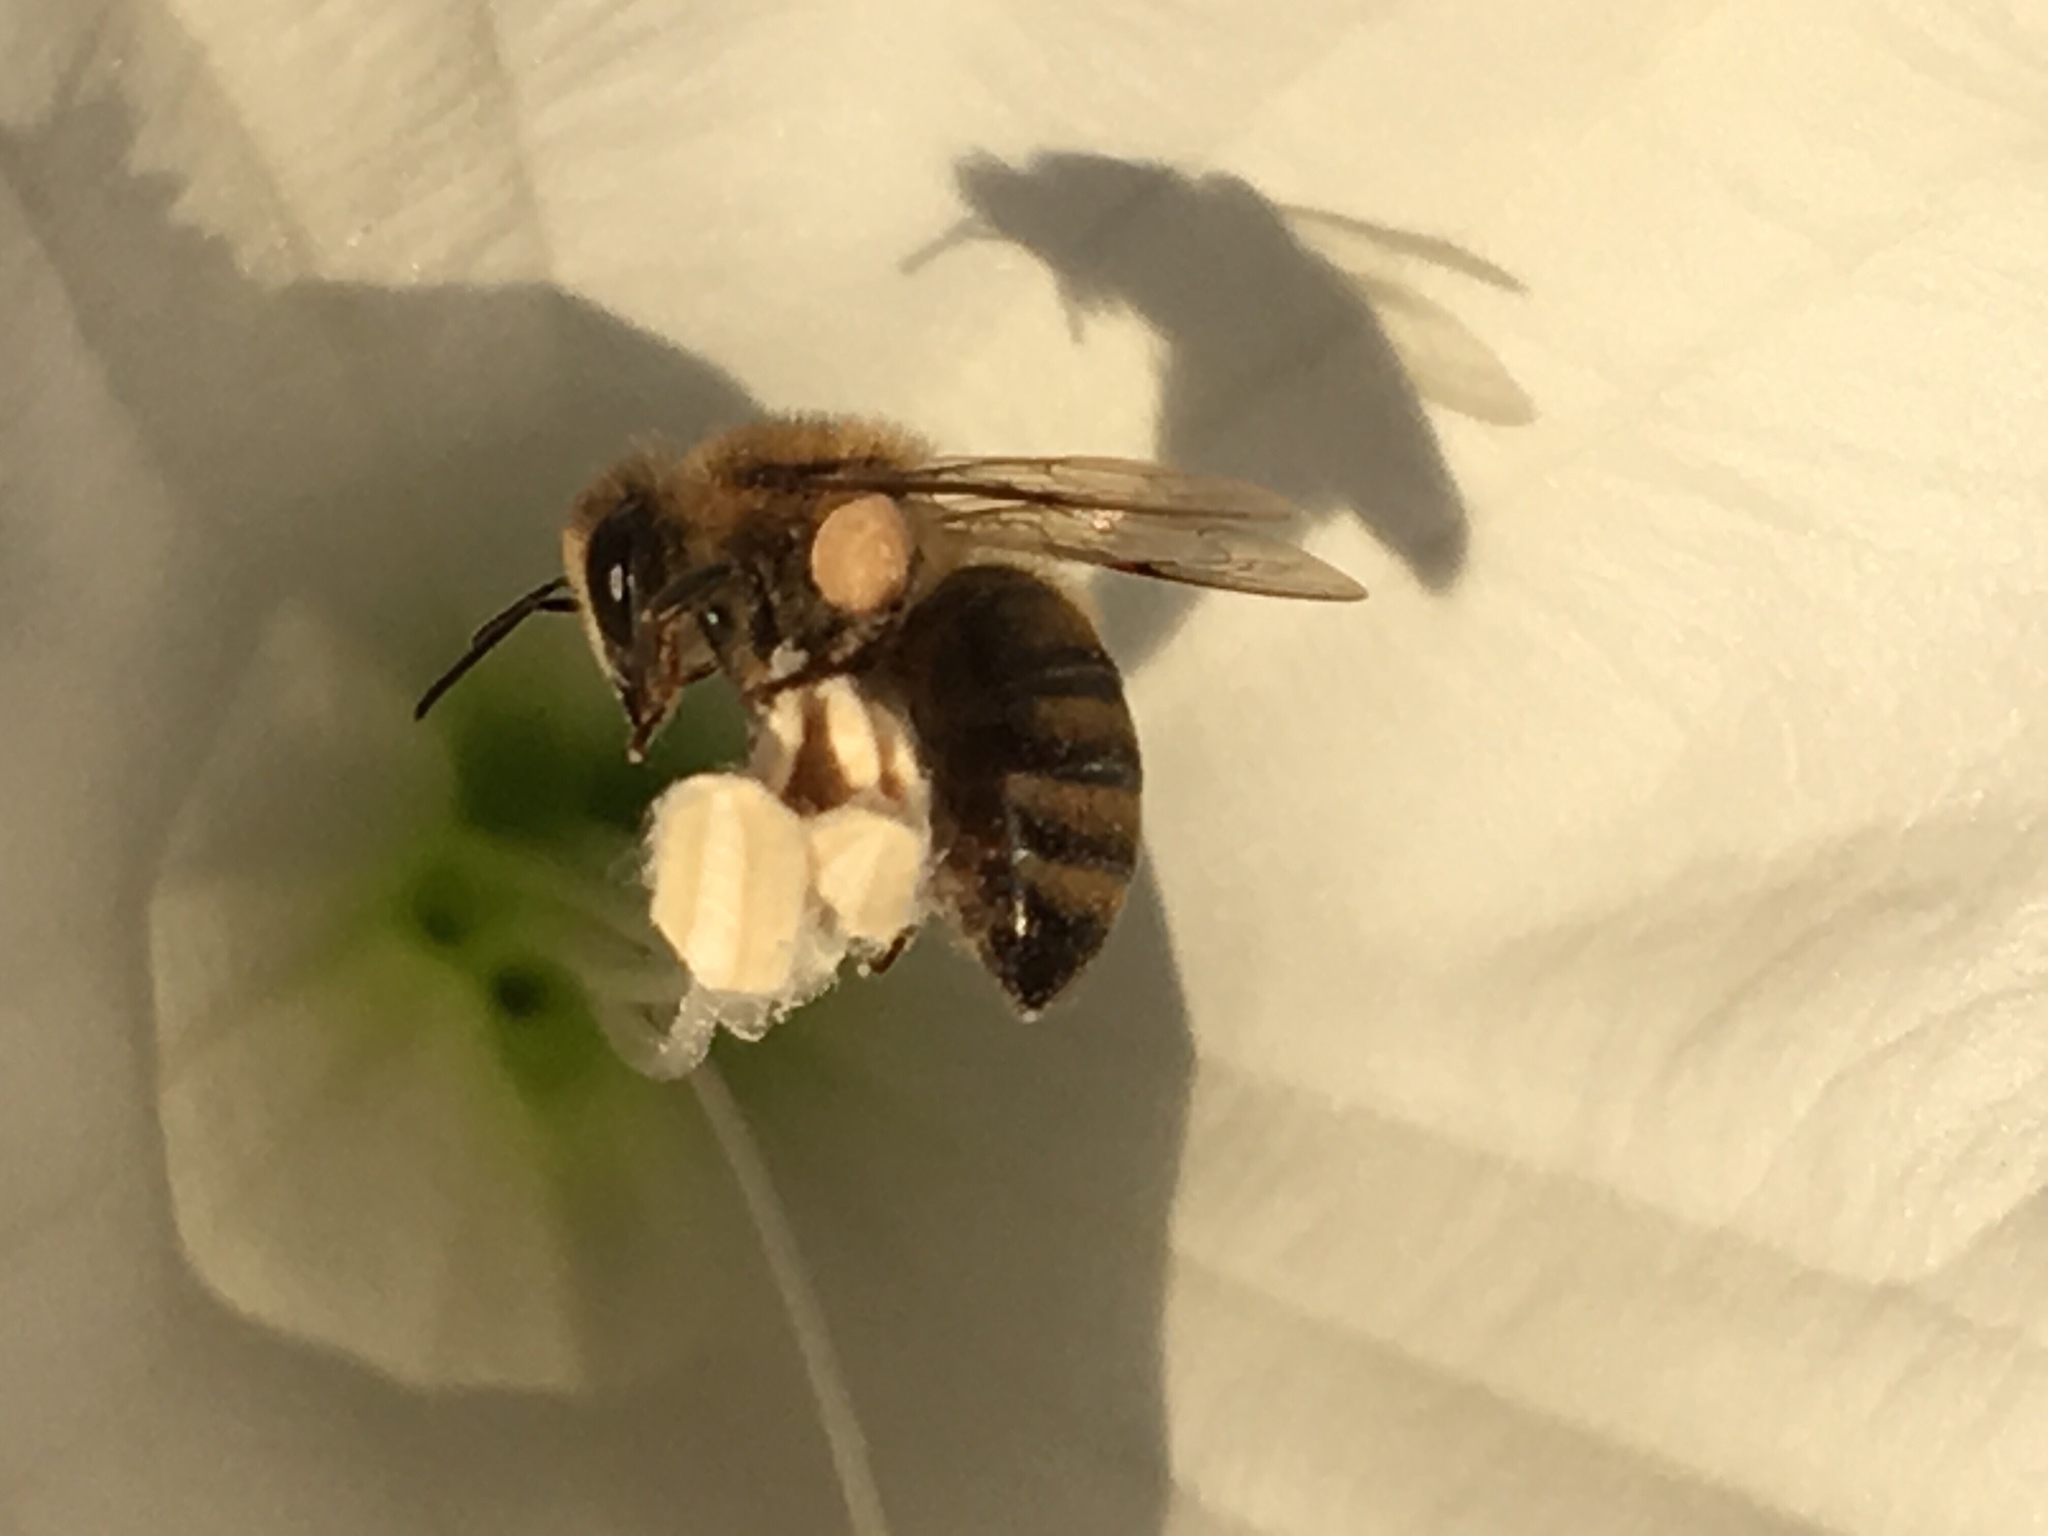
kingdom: Animalia
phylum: Arthropoda
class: Insecta
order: Hymenoptera
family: Apidae
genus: Apis
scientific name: Apis mellifera
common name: Honey bee
